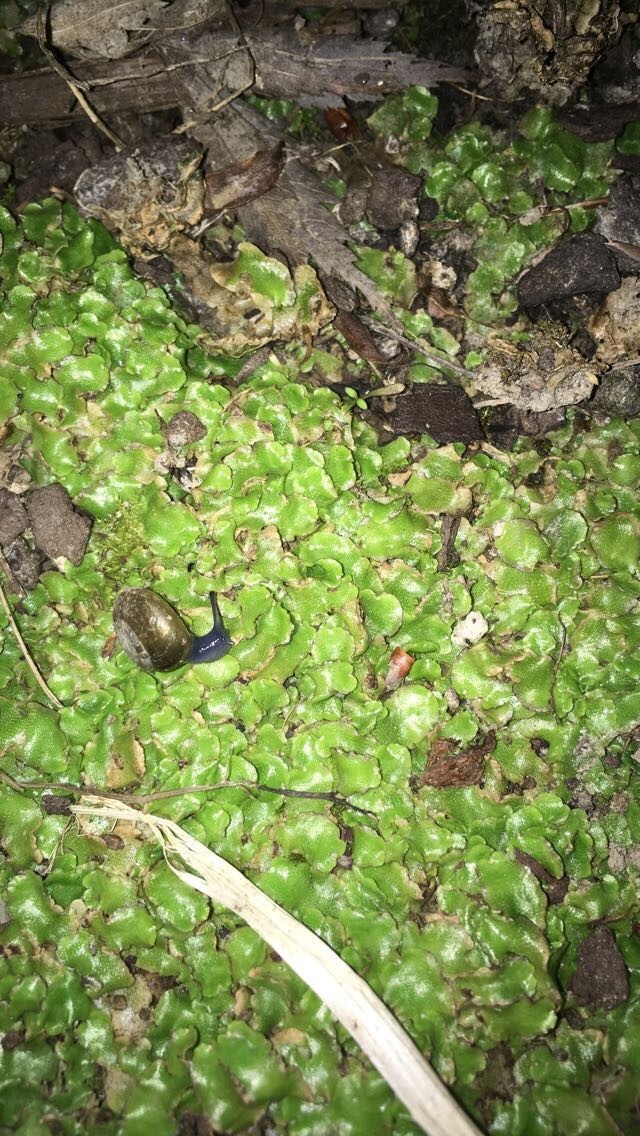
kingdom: Animalia
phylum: Mollusca
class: Gastropoda
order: Stylommatophora
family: Oxychilidae
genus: Oxychilus
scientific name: Oxychilus alliarius
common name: Garlic glass-snail
